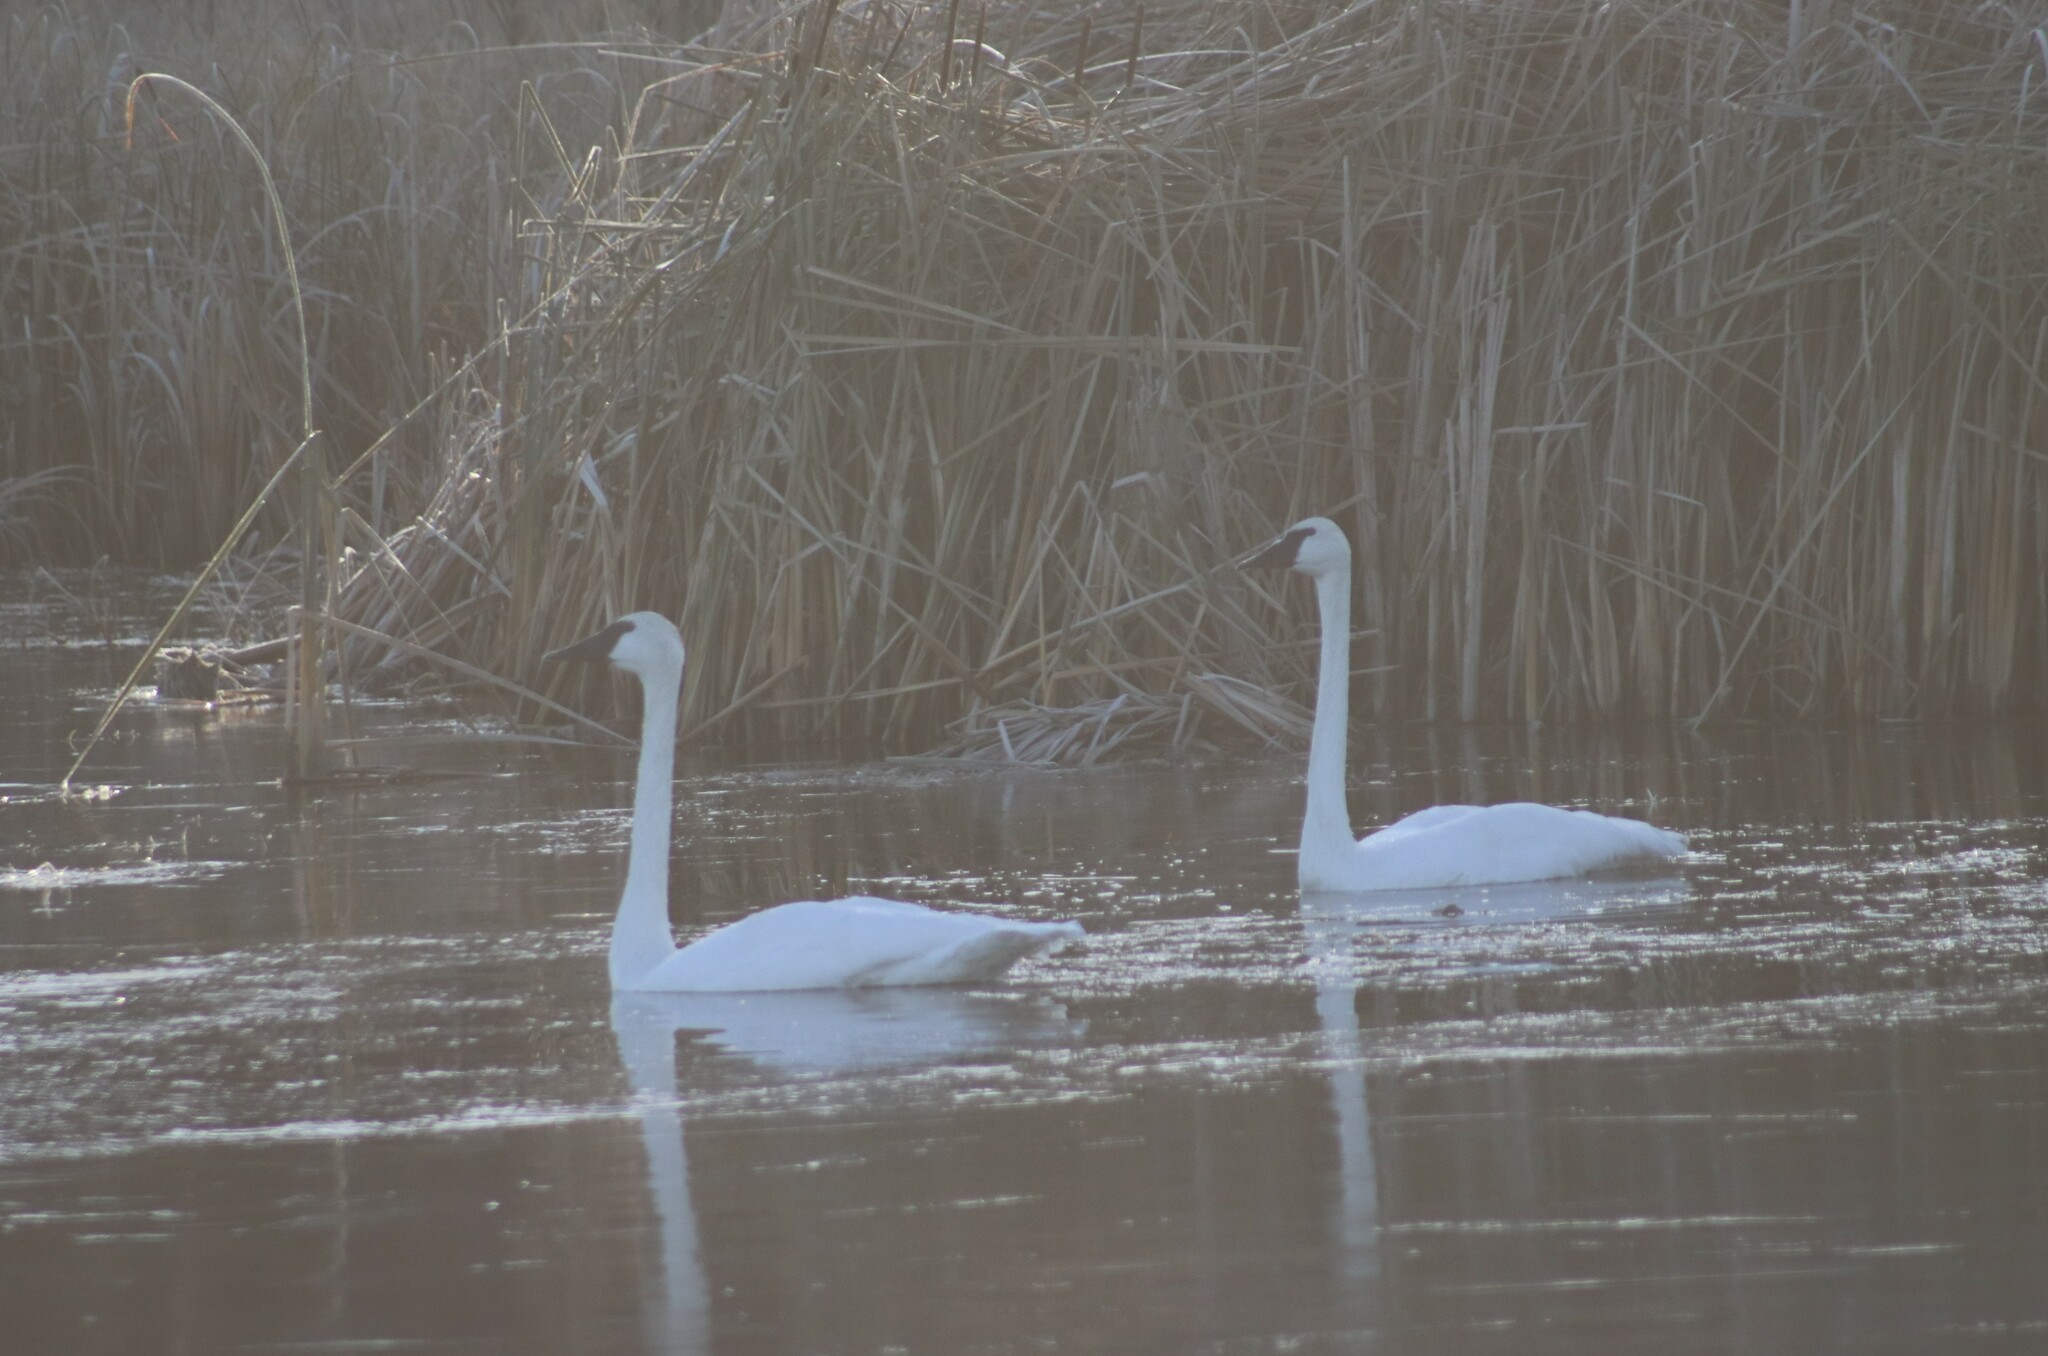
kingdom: Animalia
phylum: Chordata
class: Aves
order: Anseriformes
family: Anatidae
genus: Cygnus
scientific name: Cygnus buccinator
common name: Trumpeter swan
